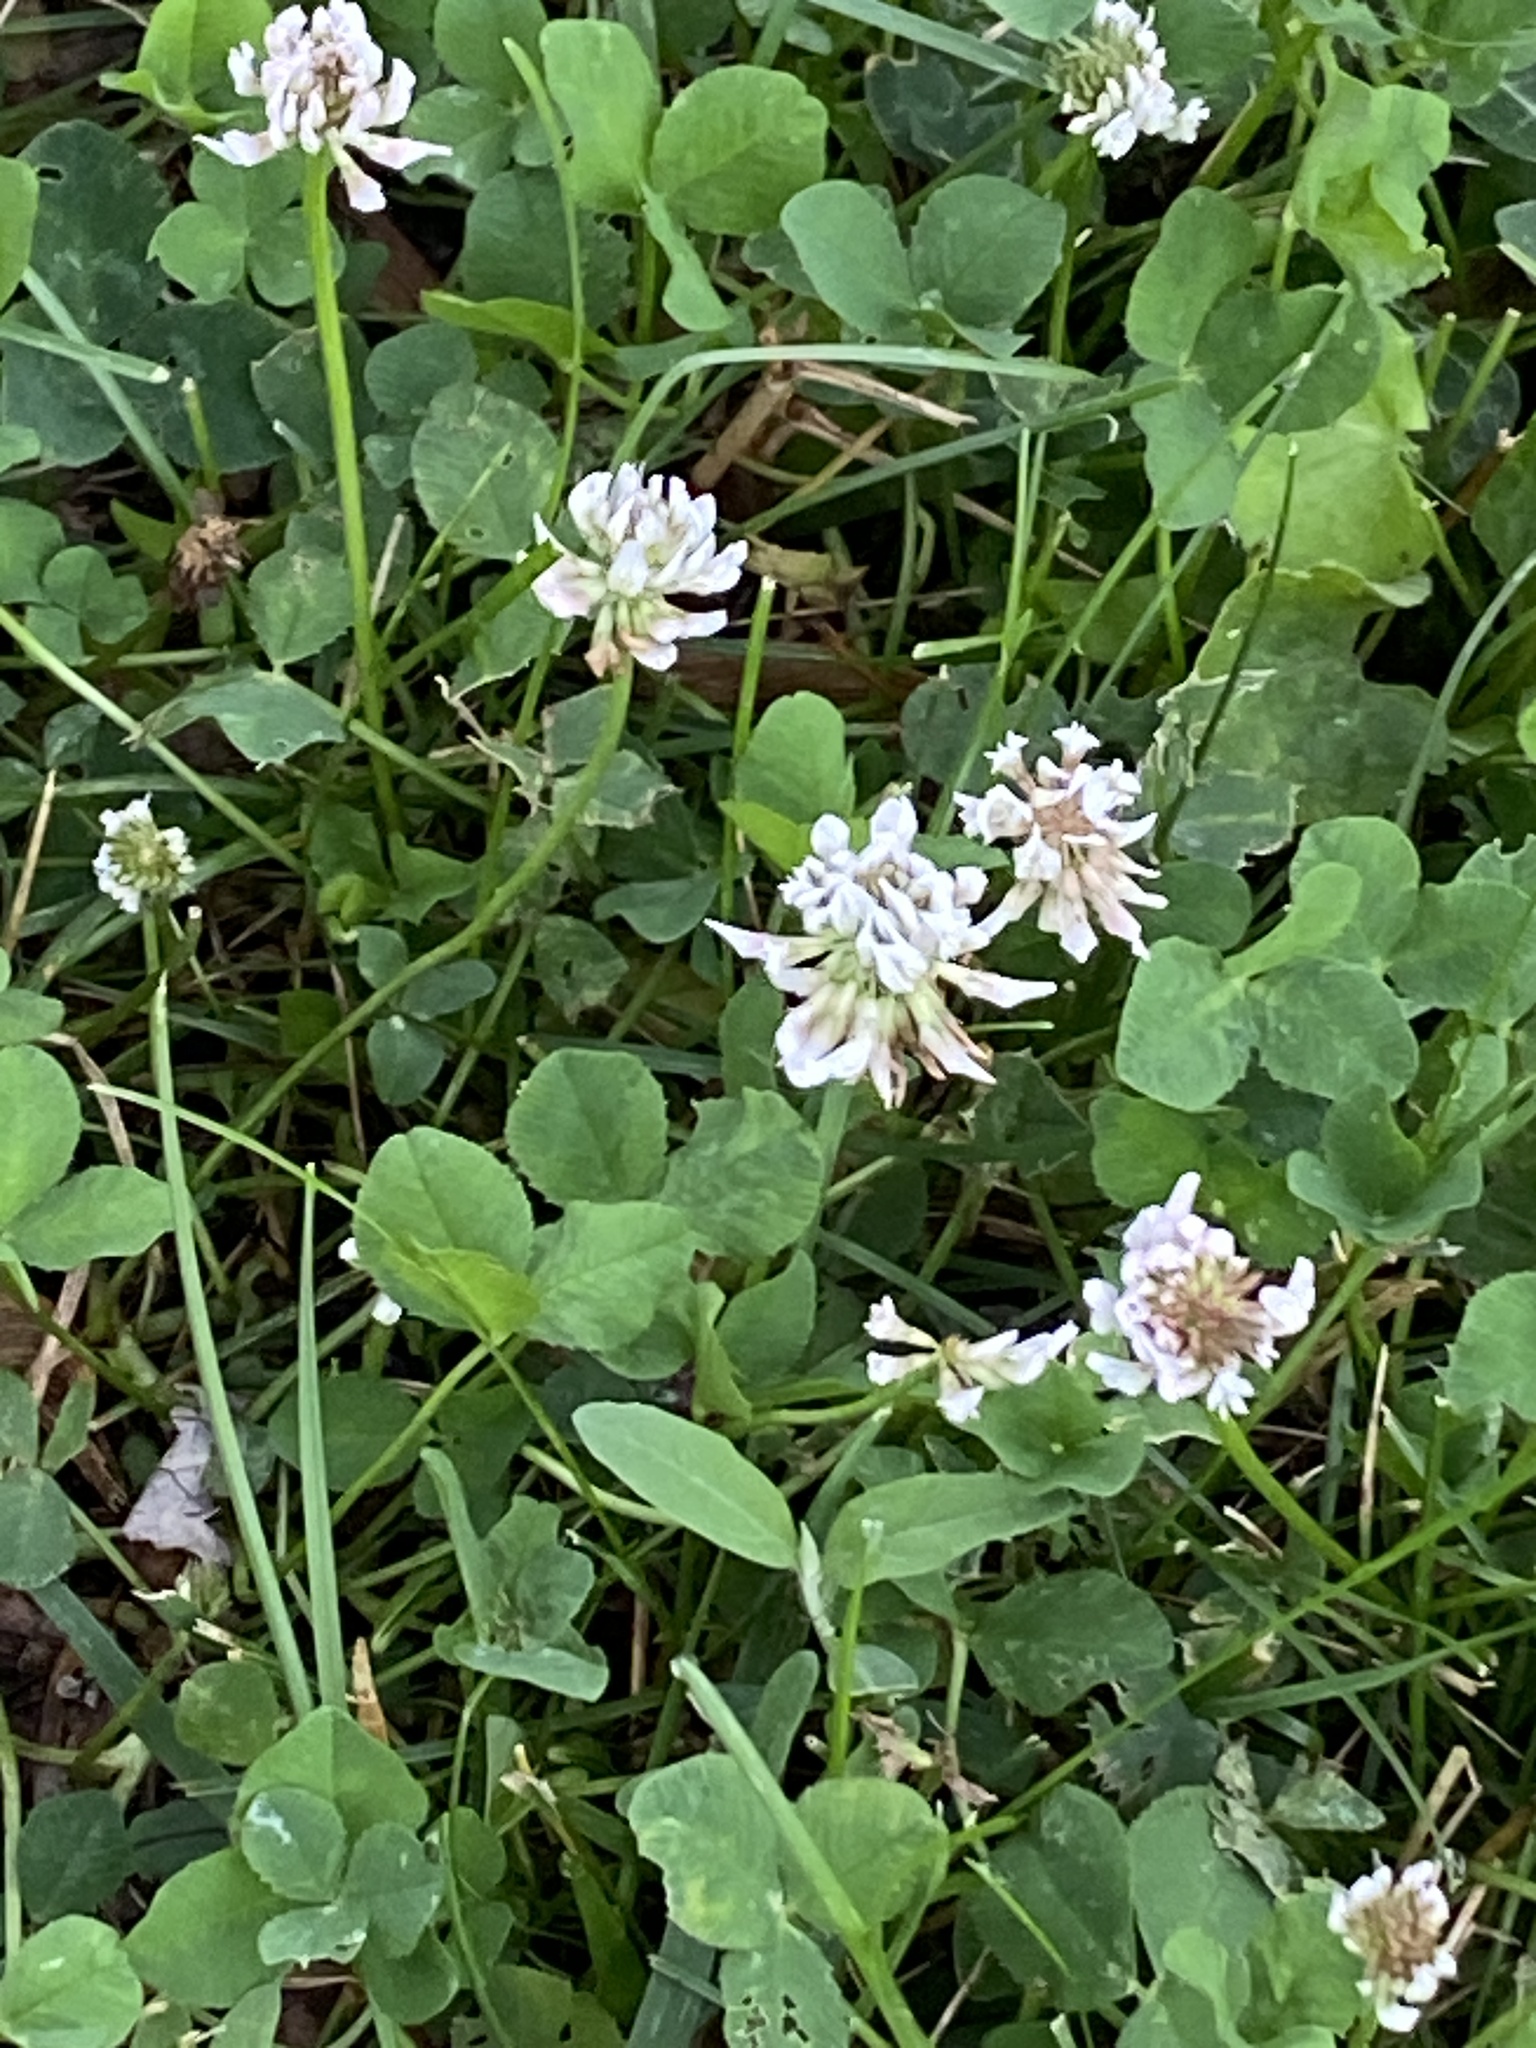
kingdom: Plantae
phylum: Tracheophyta
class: Magnoliopsida
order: Fabales
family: Fabaceae
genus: Trifolium
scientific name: Trifolium repens
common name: White clover
